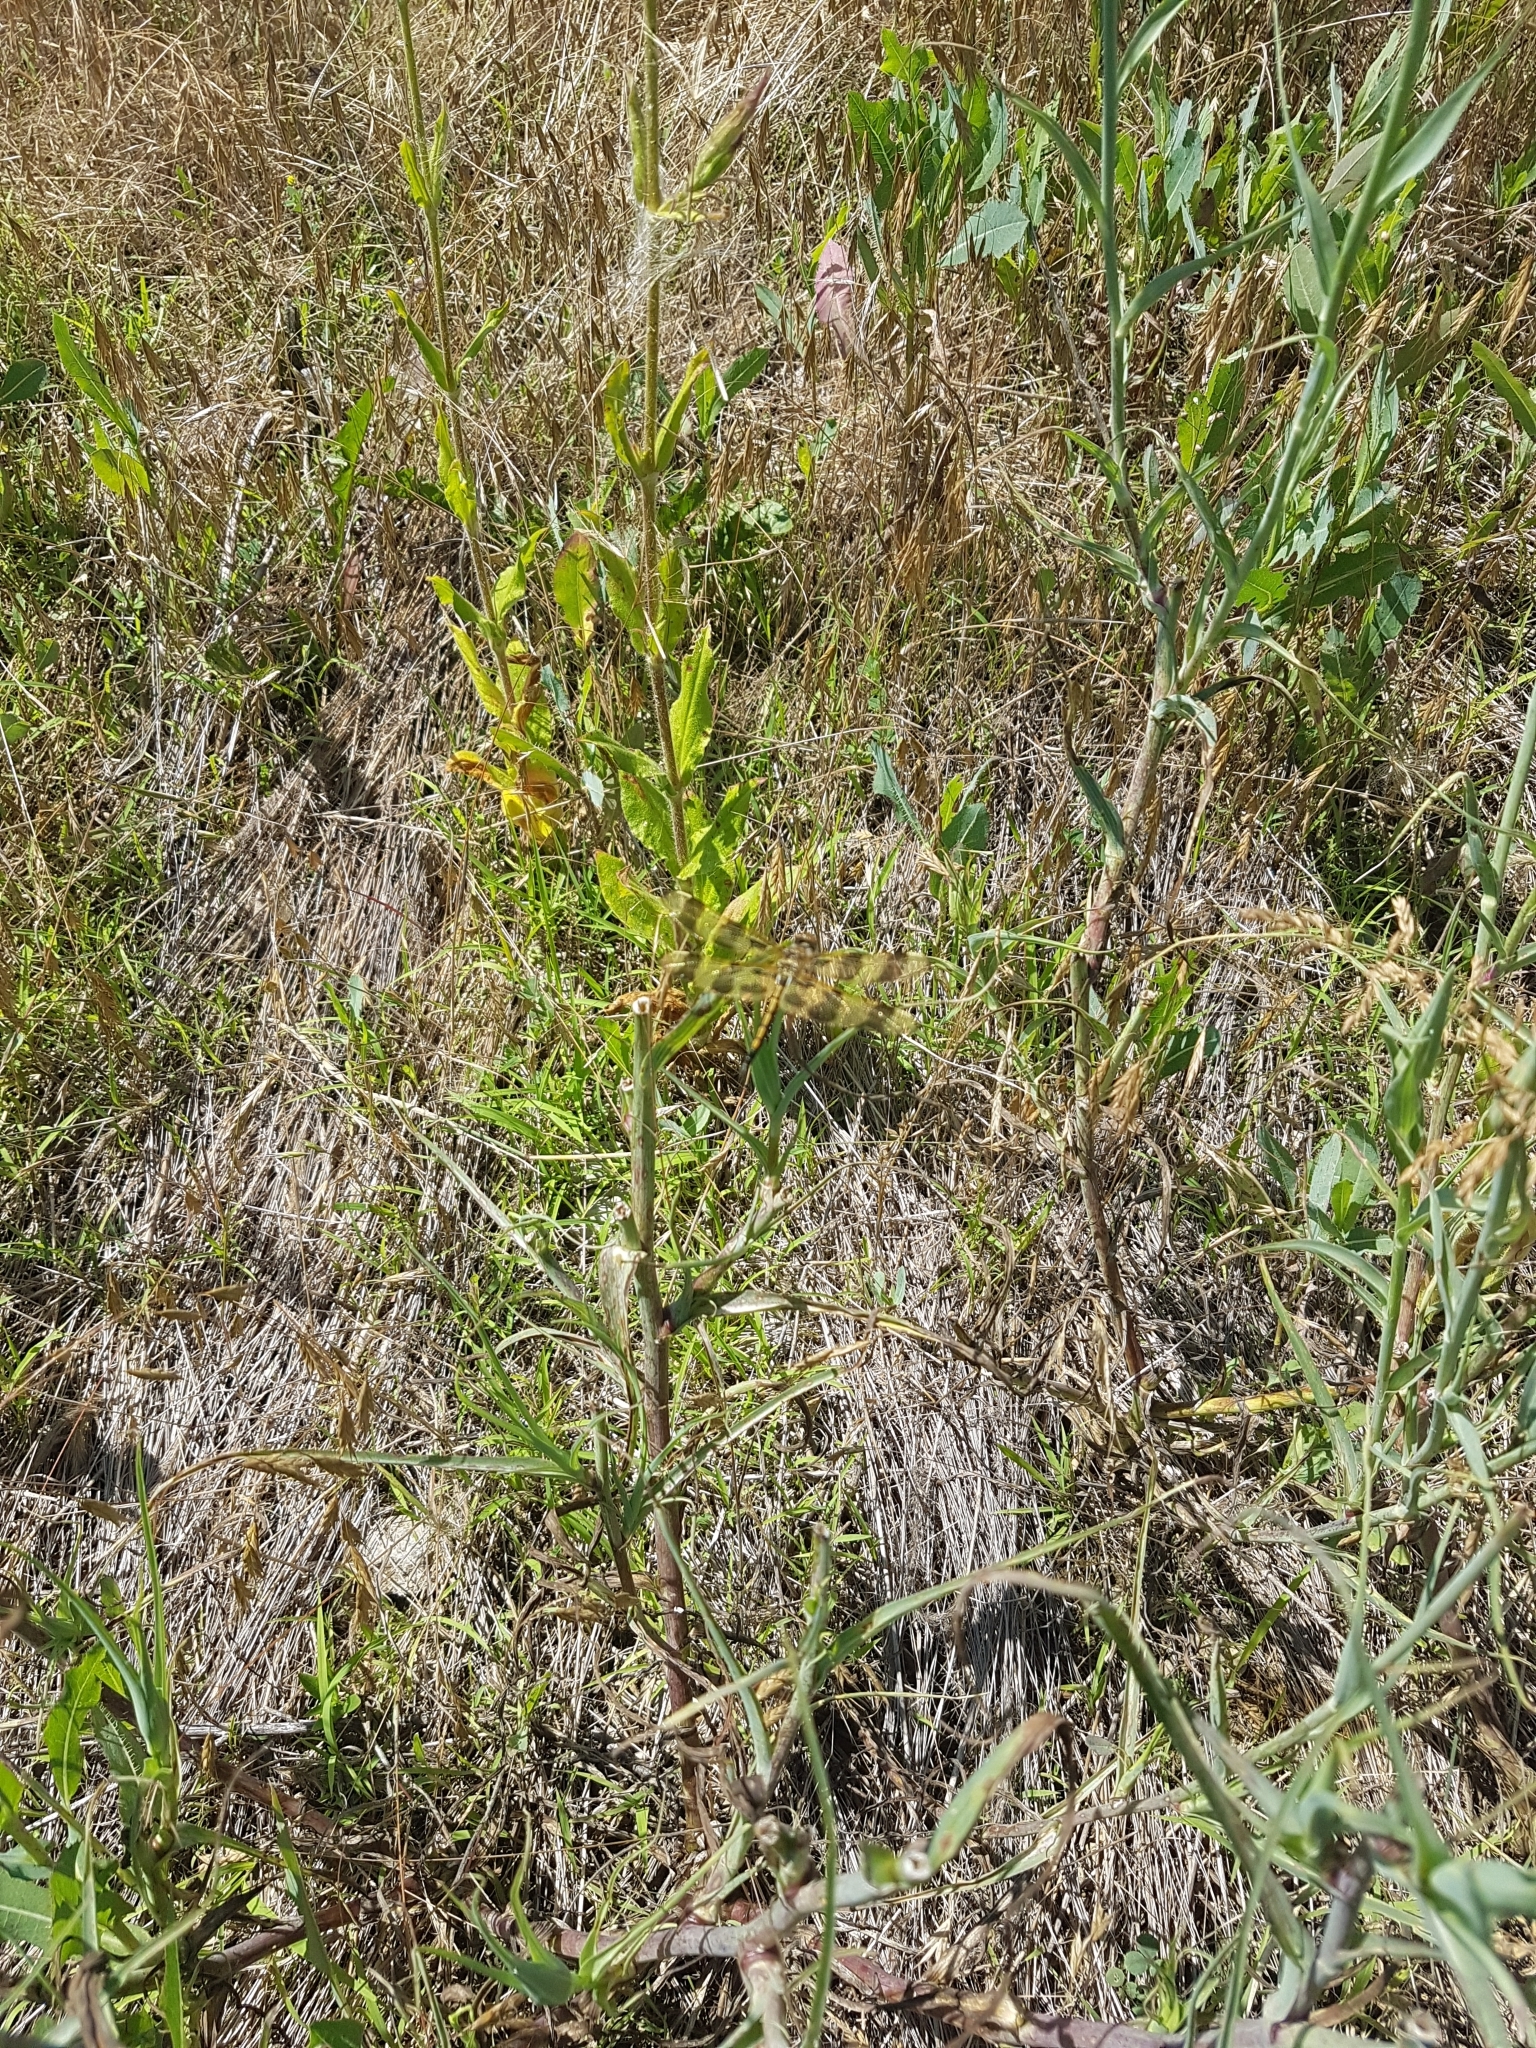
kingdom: Animalia
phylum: Arthropoda
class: Insecta
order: Odonata
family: Libellulidae
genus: Celithemis
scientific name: Celithemis eponina
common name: Halloween pennant
